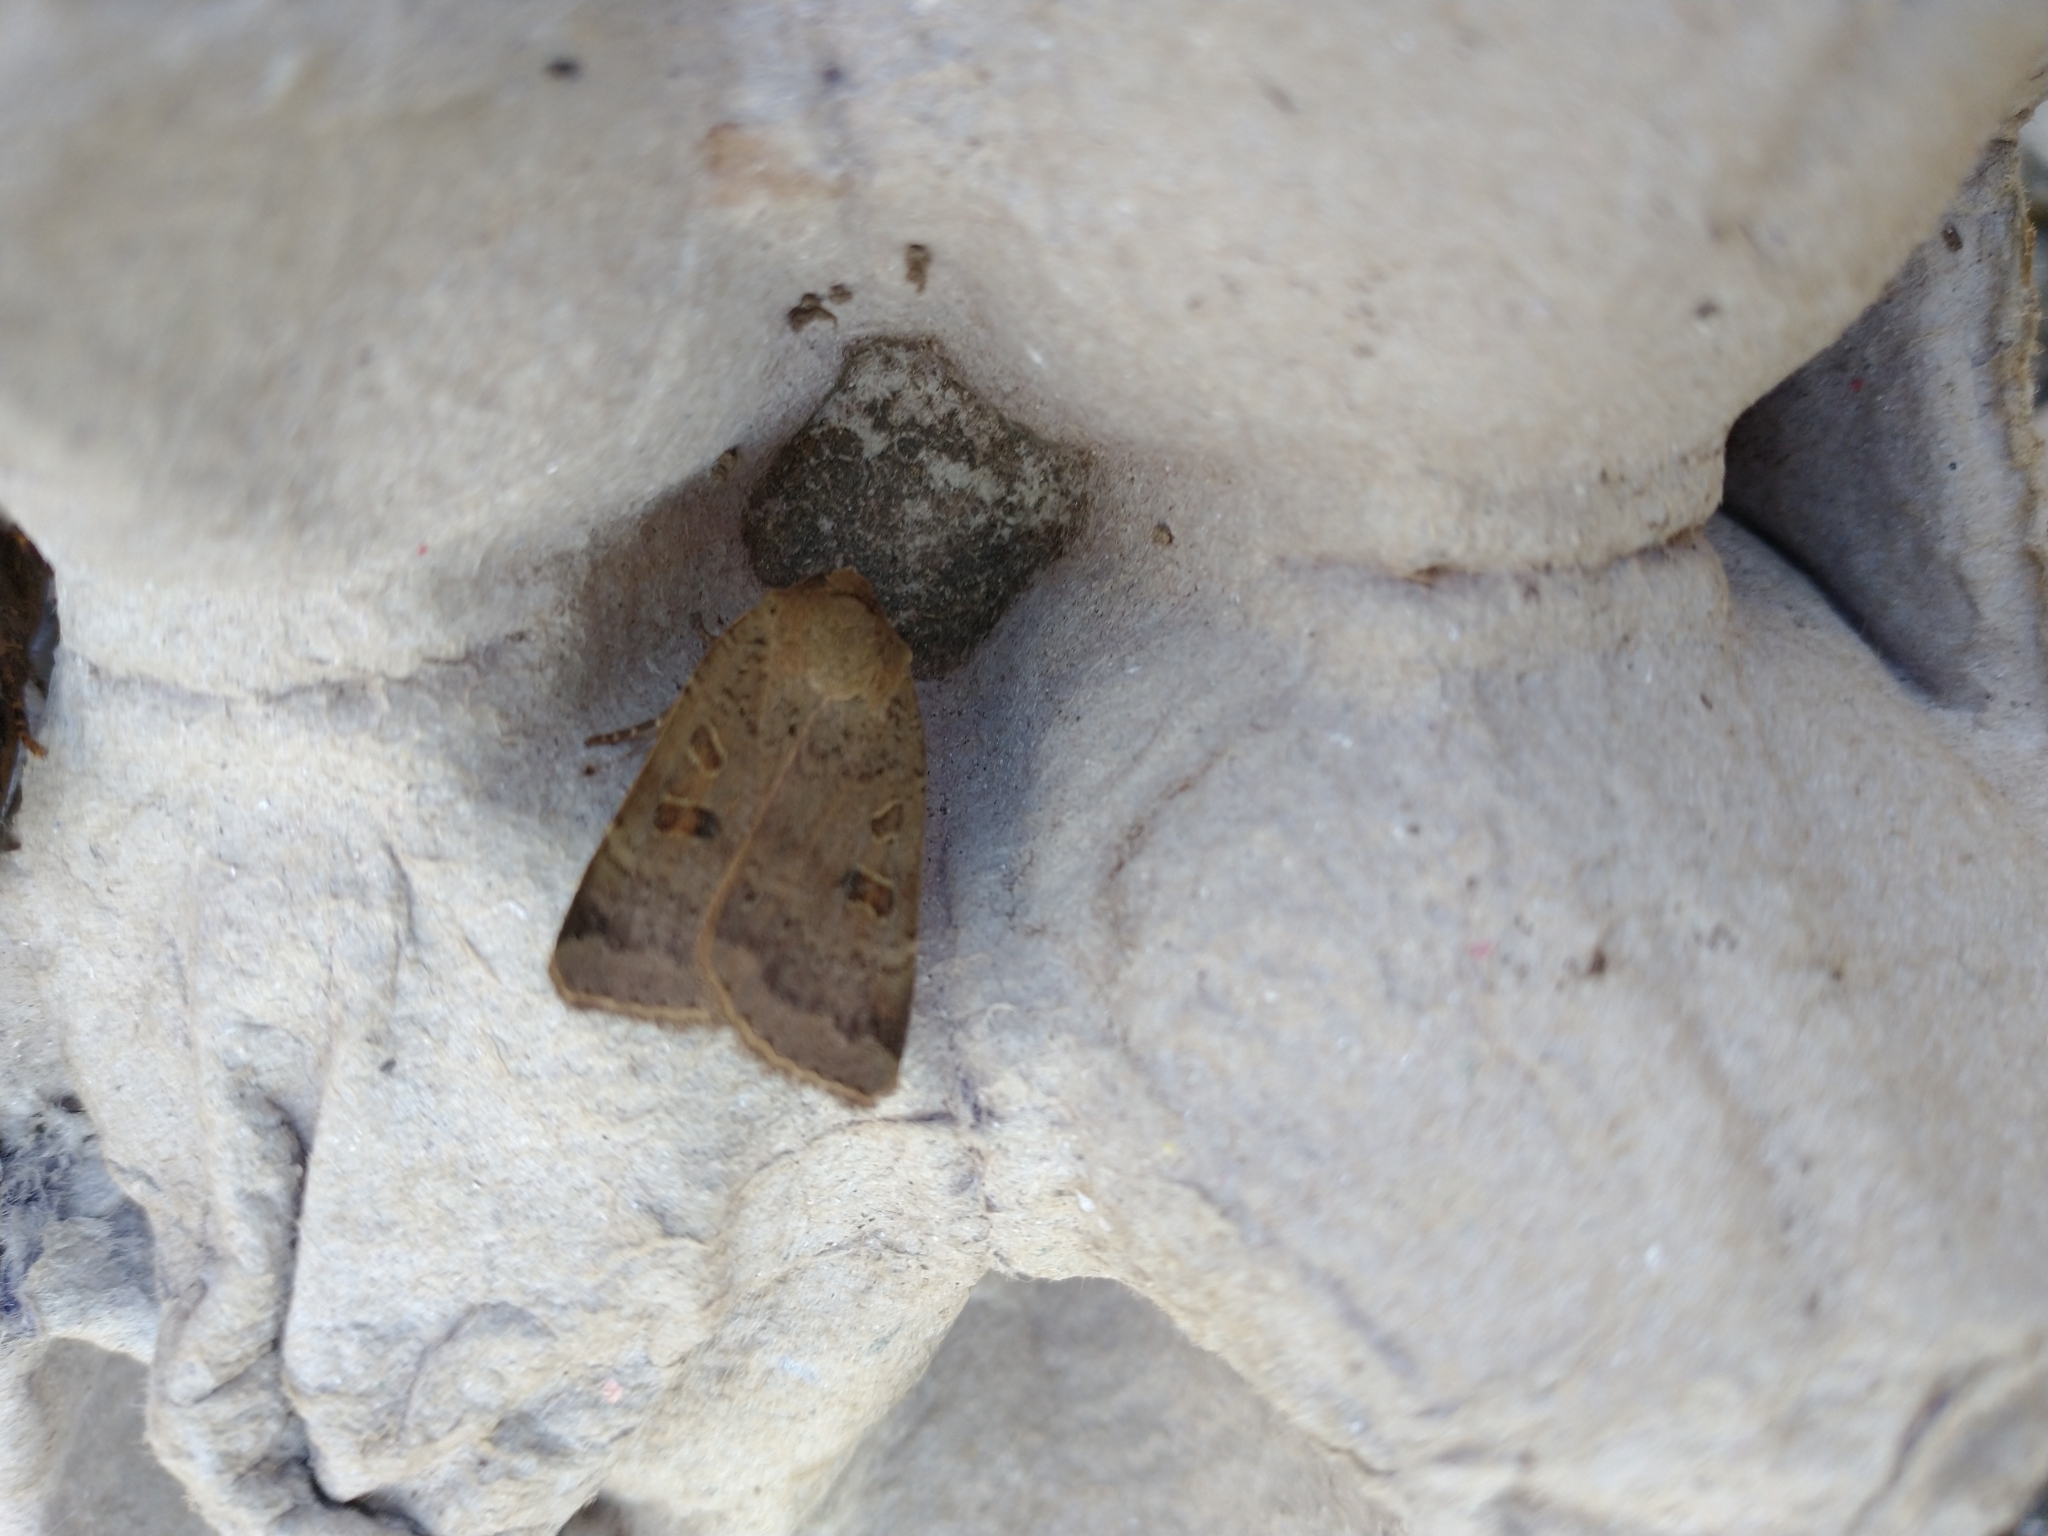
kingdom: Animalia
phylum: Arthropoda
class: Insecta
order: Lepidoptera
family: Noctuidae
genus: Noctua
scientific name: Noctua comes
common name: Lesser yellow underwing
